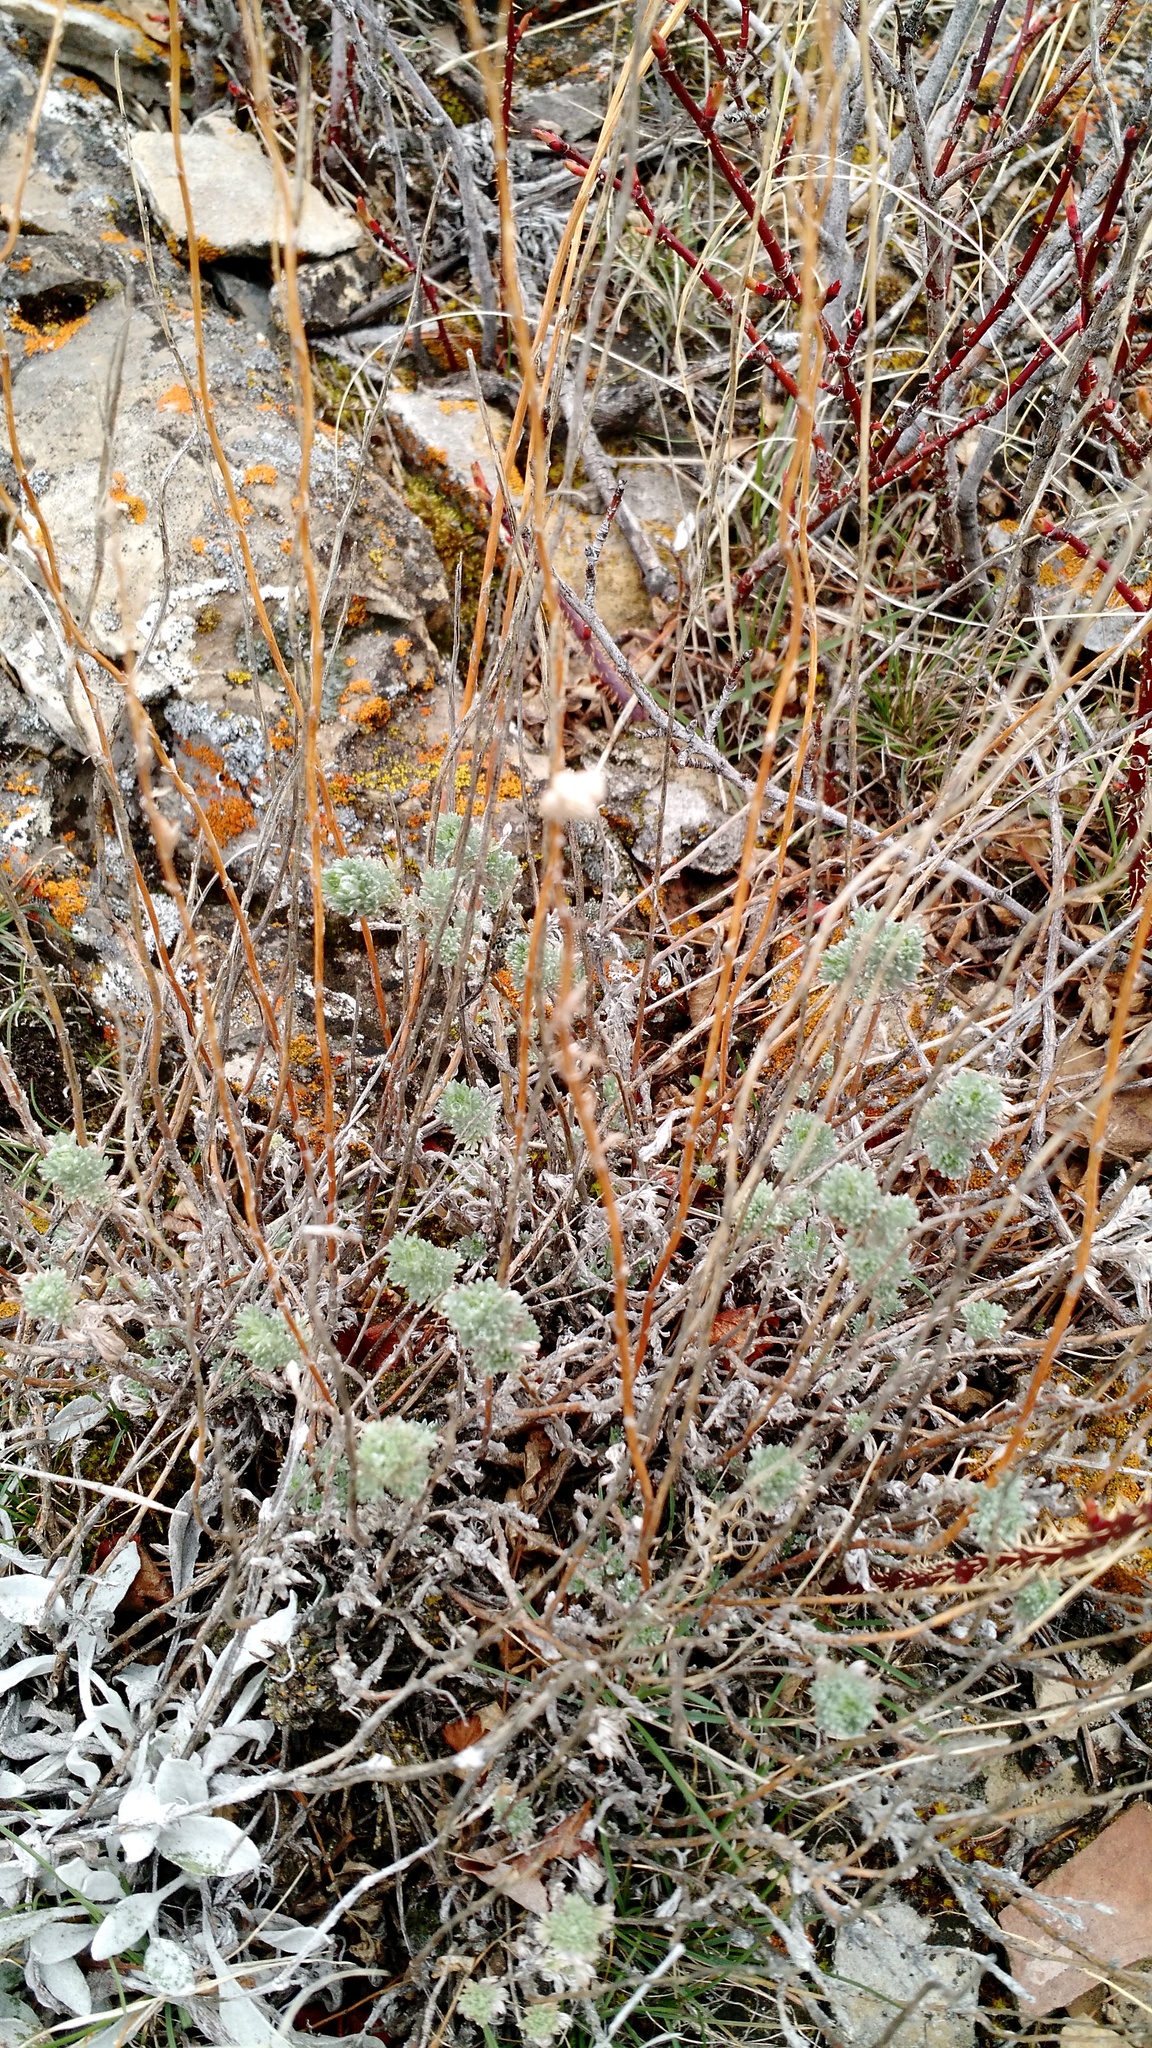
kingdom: Plantae
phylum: Tracheophyta
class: Magnoliopsida
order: Asterales
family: Asteraceae
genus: Artemisia
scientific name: Artemisia frigida
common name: Prairie sagewort
